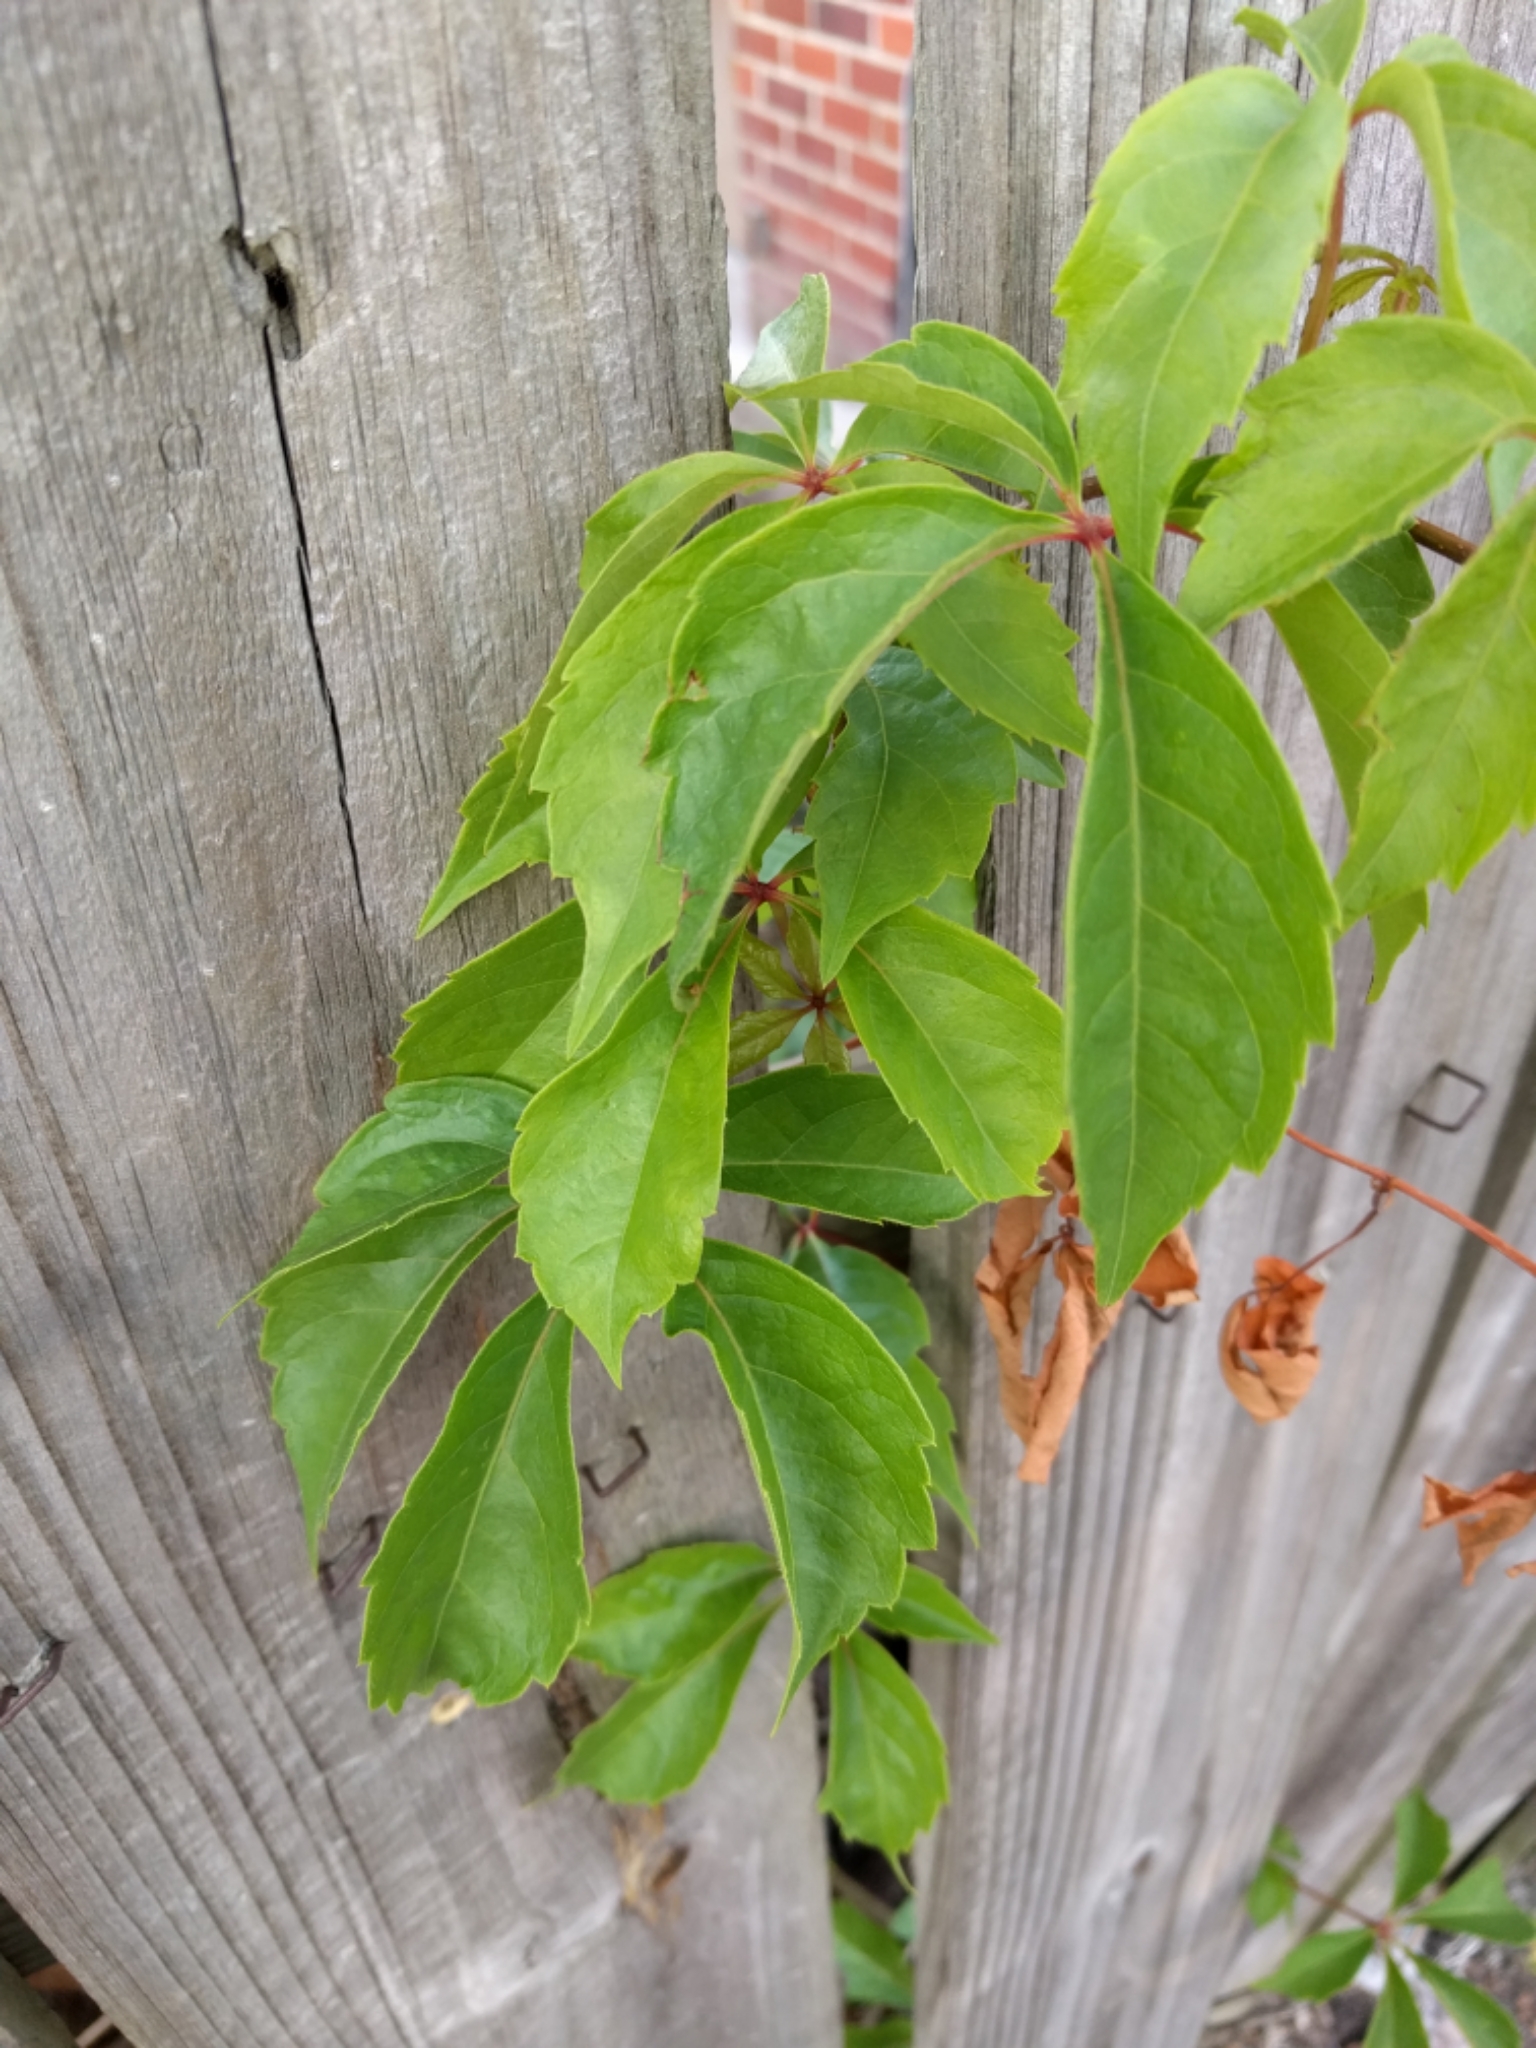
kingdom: Plantae
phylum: Tracheophyta
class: Magnoliopsida
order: Vitales
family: Vitaceae
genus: Parthenocissus
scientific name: Parthenocissus quinquefolia
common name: Virginia-creeper
